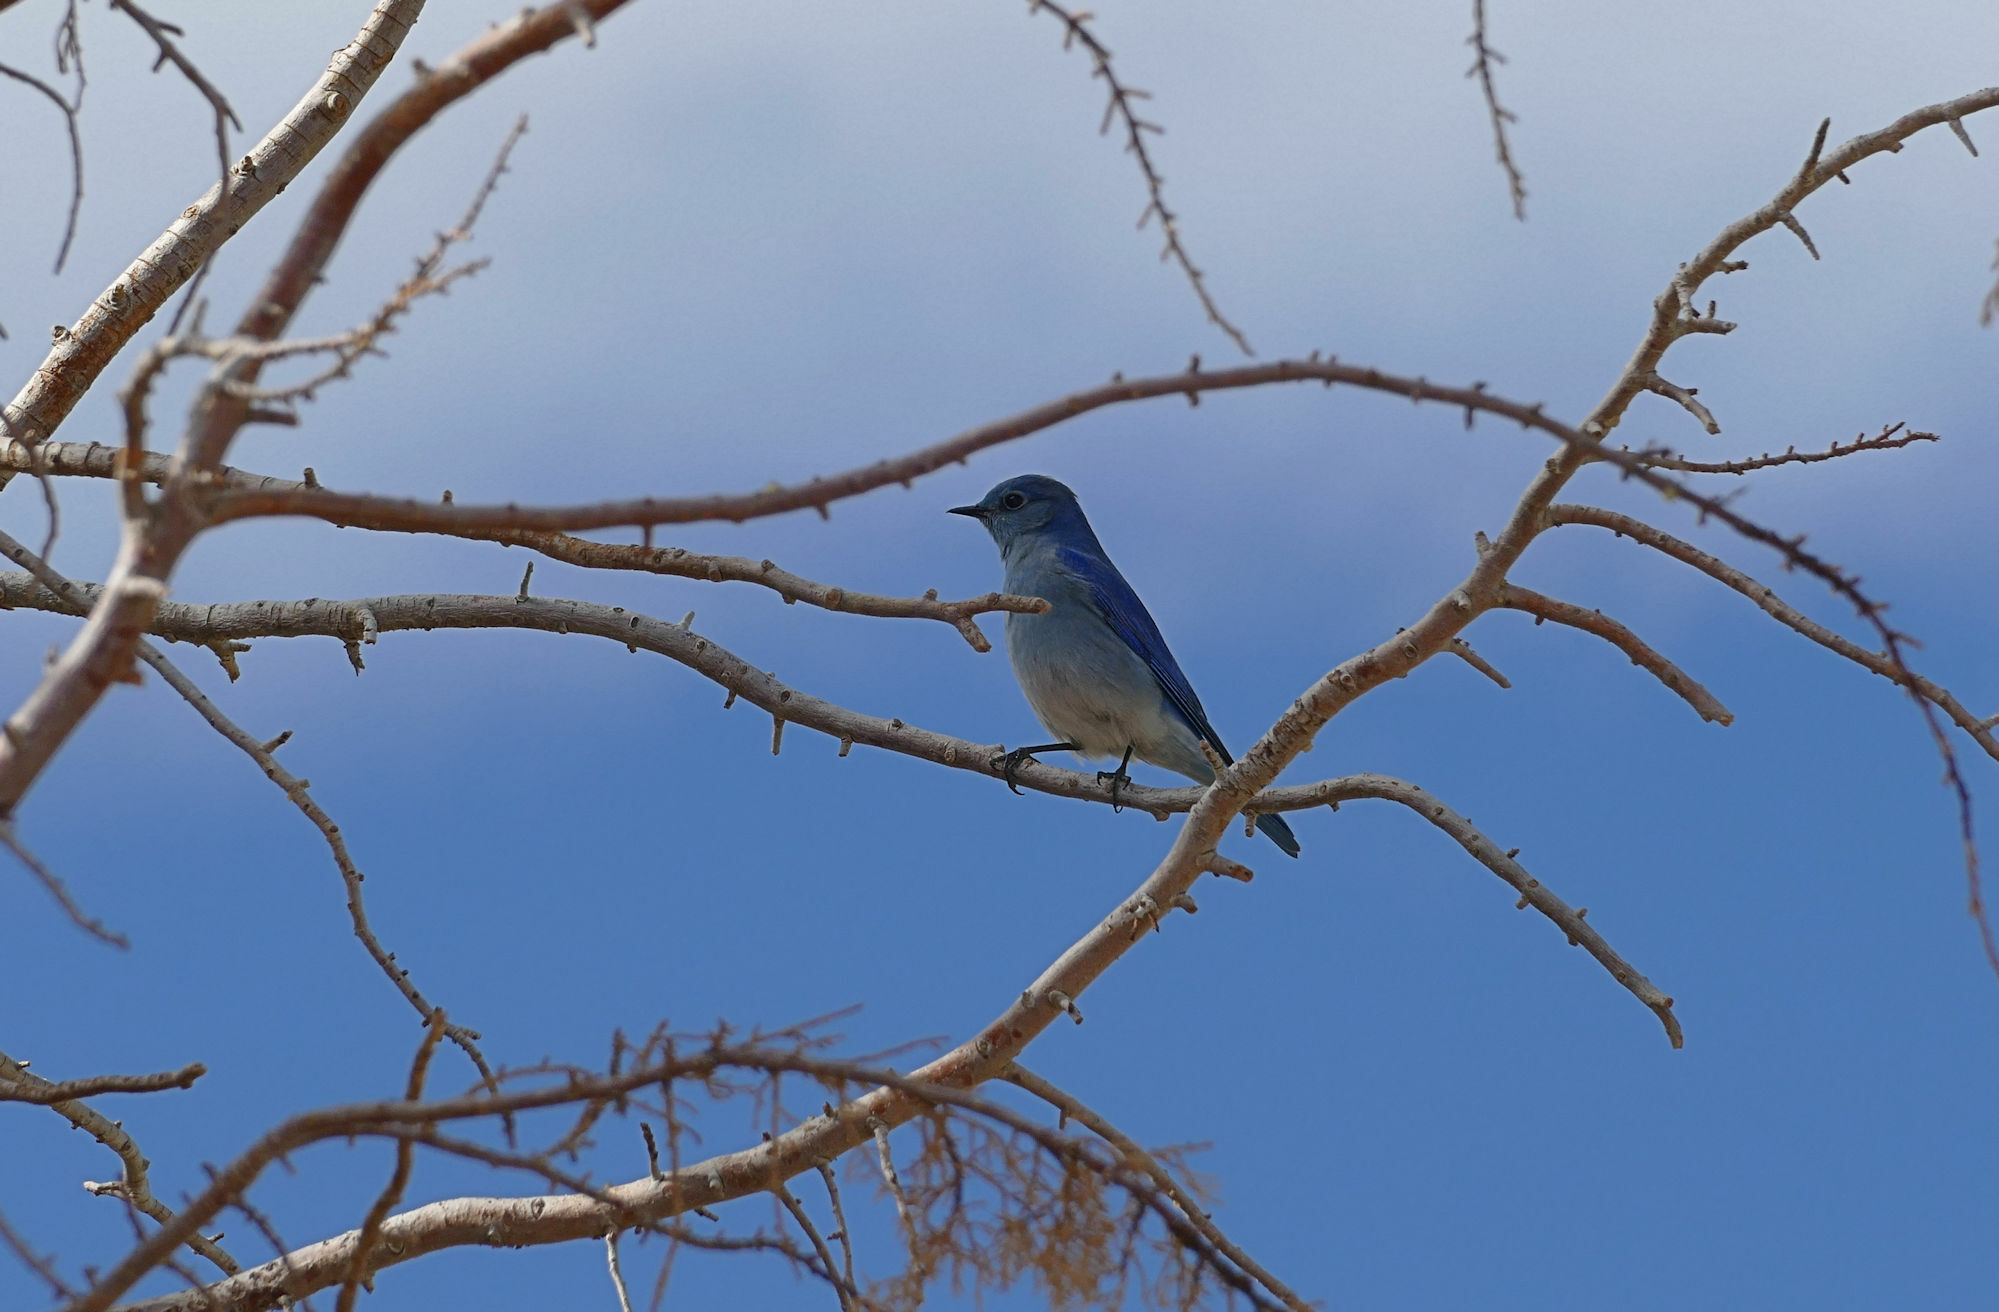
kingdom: Animalia
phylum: Chordata
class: Aves
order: Passeriformes
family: Turdidae
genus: Sialia
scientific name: Sialia currucoides
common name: Mountain bluebird
